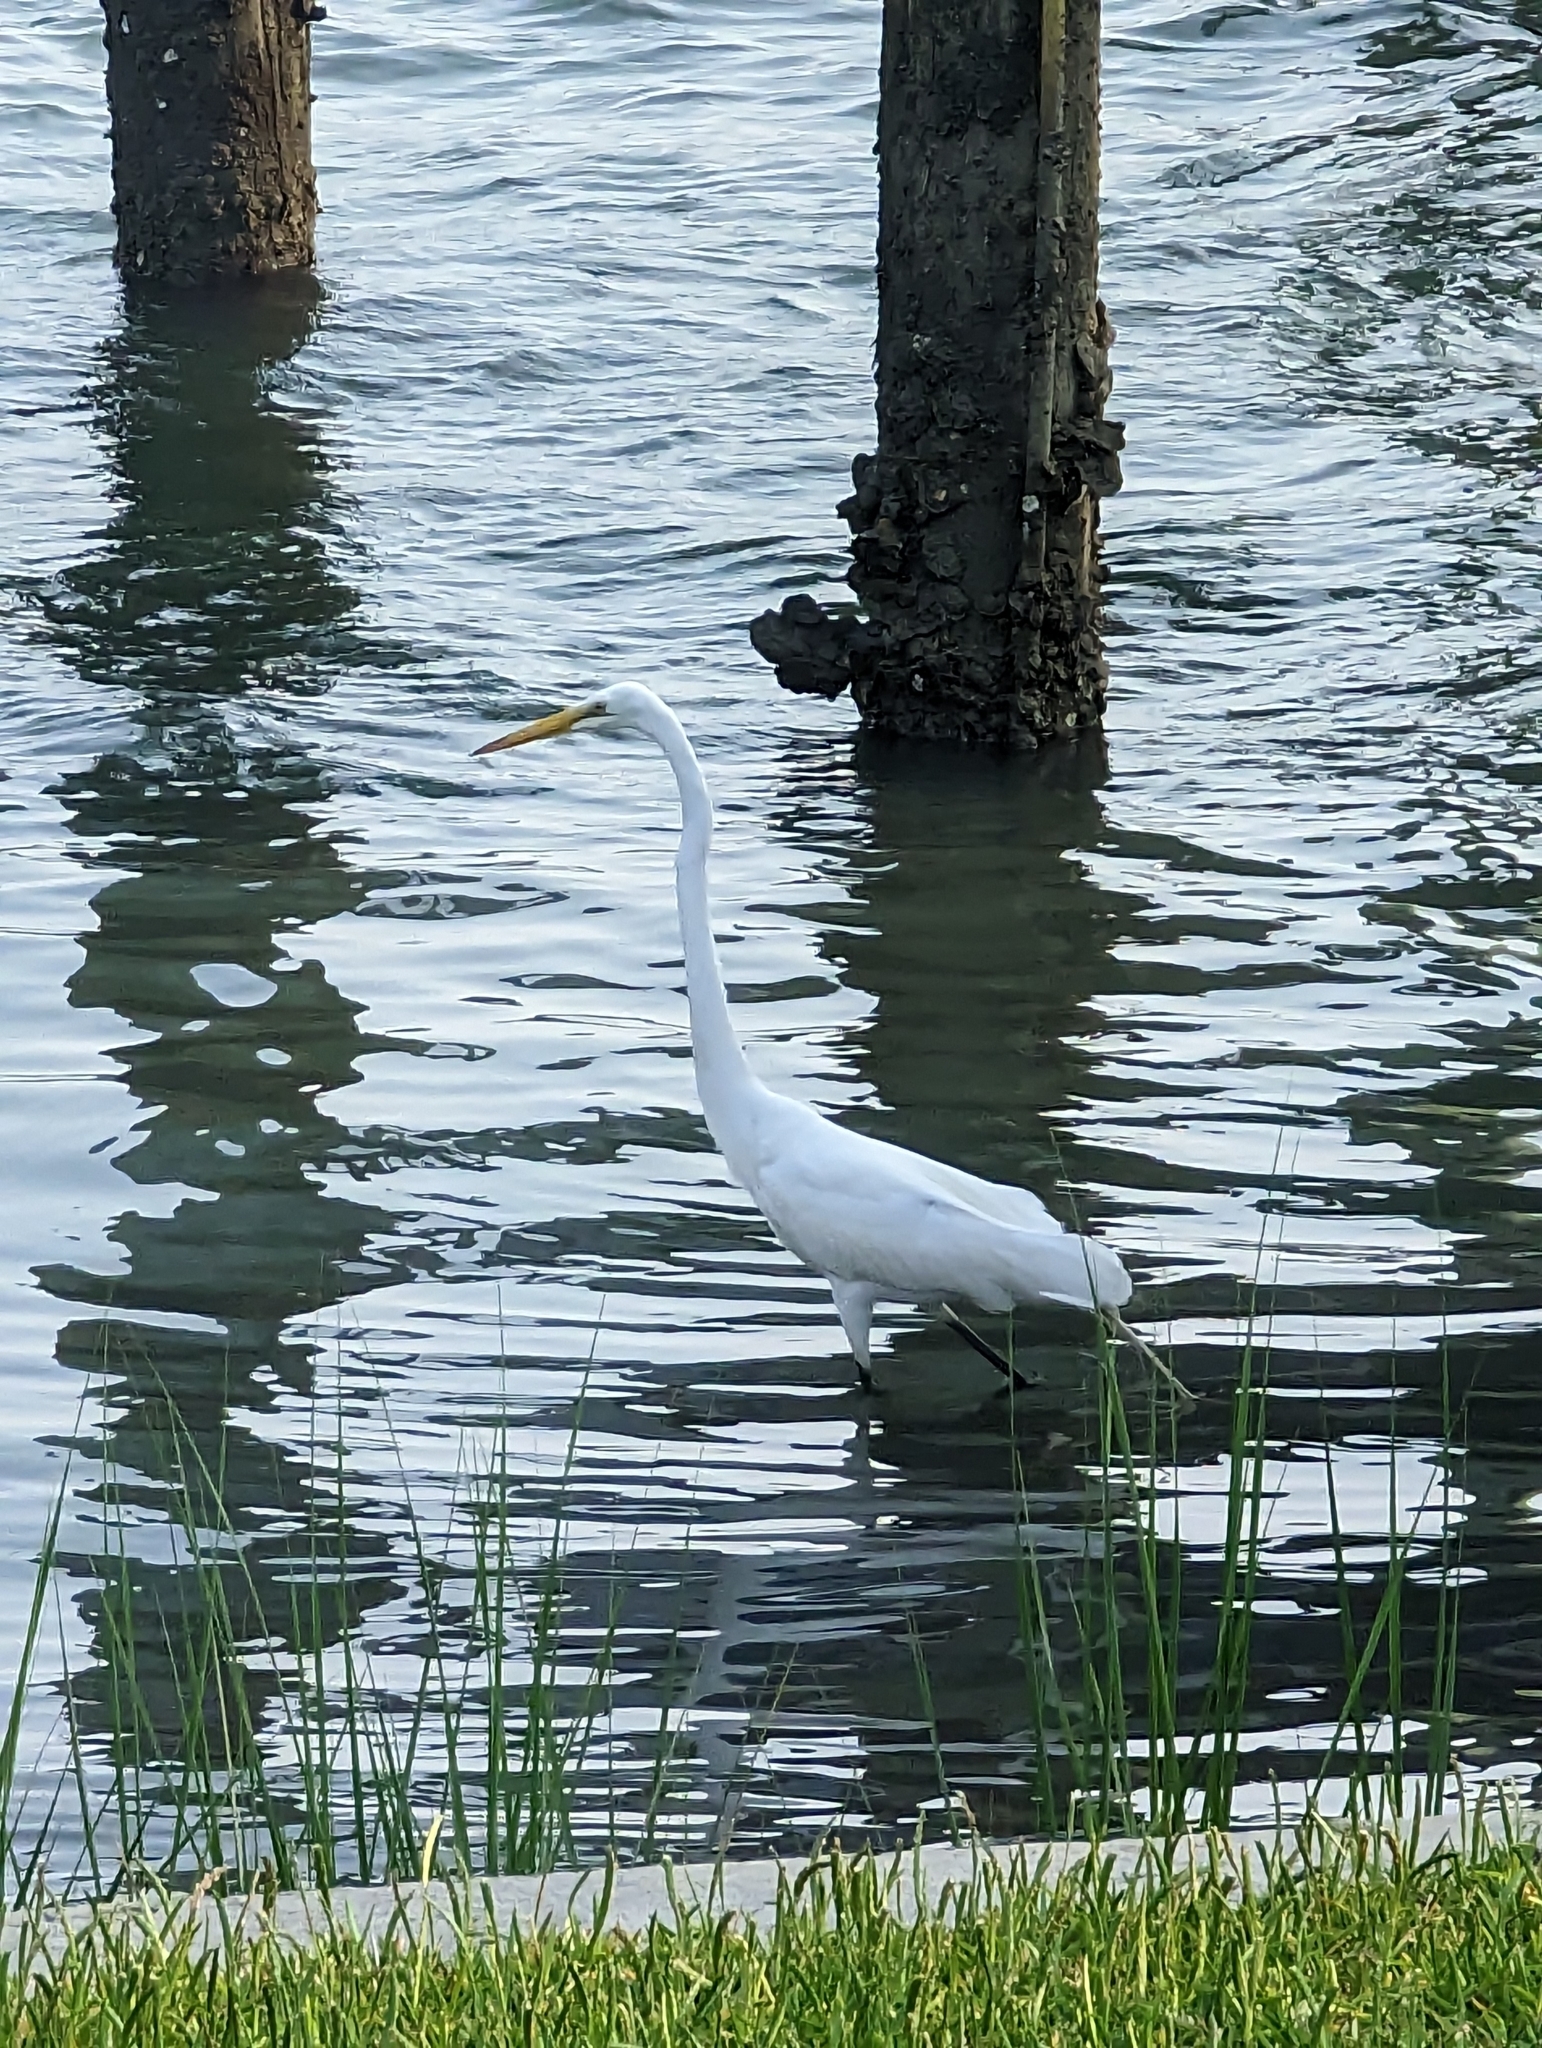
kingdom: Animalia
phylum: Chordata
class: Aves
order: Pelecaniformes
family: Ardeidae
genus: Ardea
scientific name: Ardea alba
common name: Great egret
